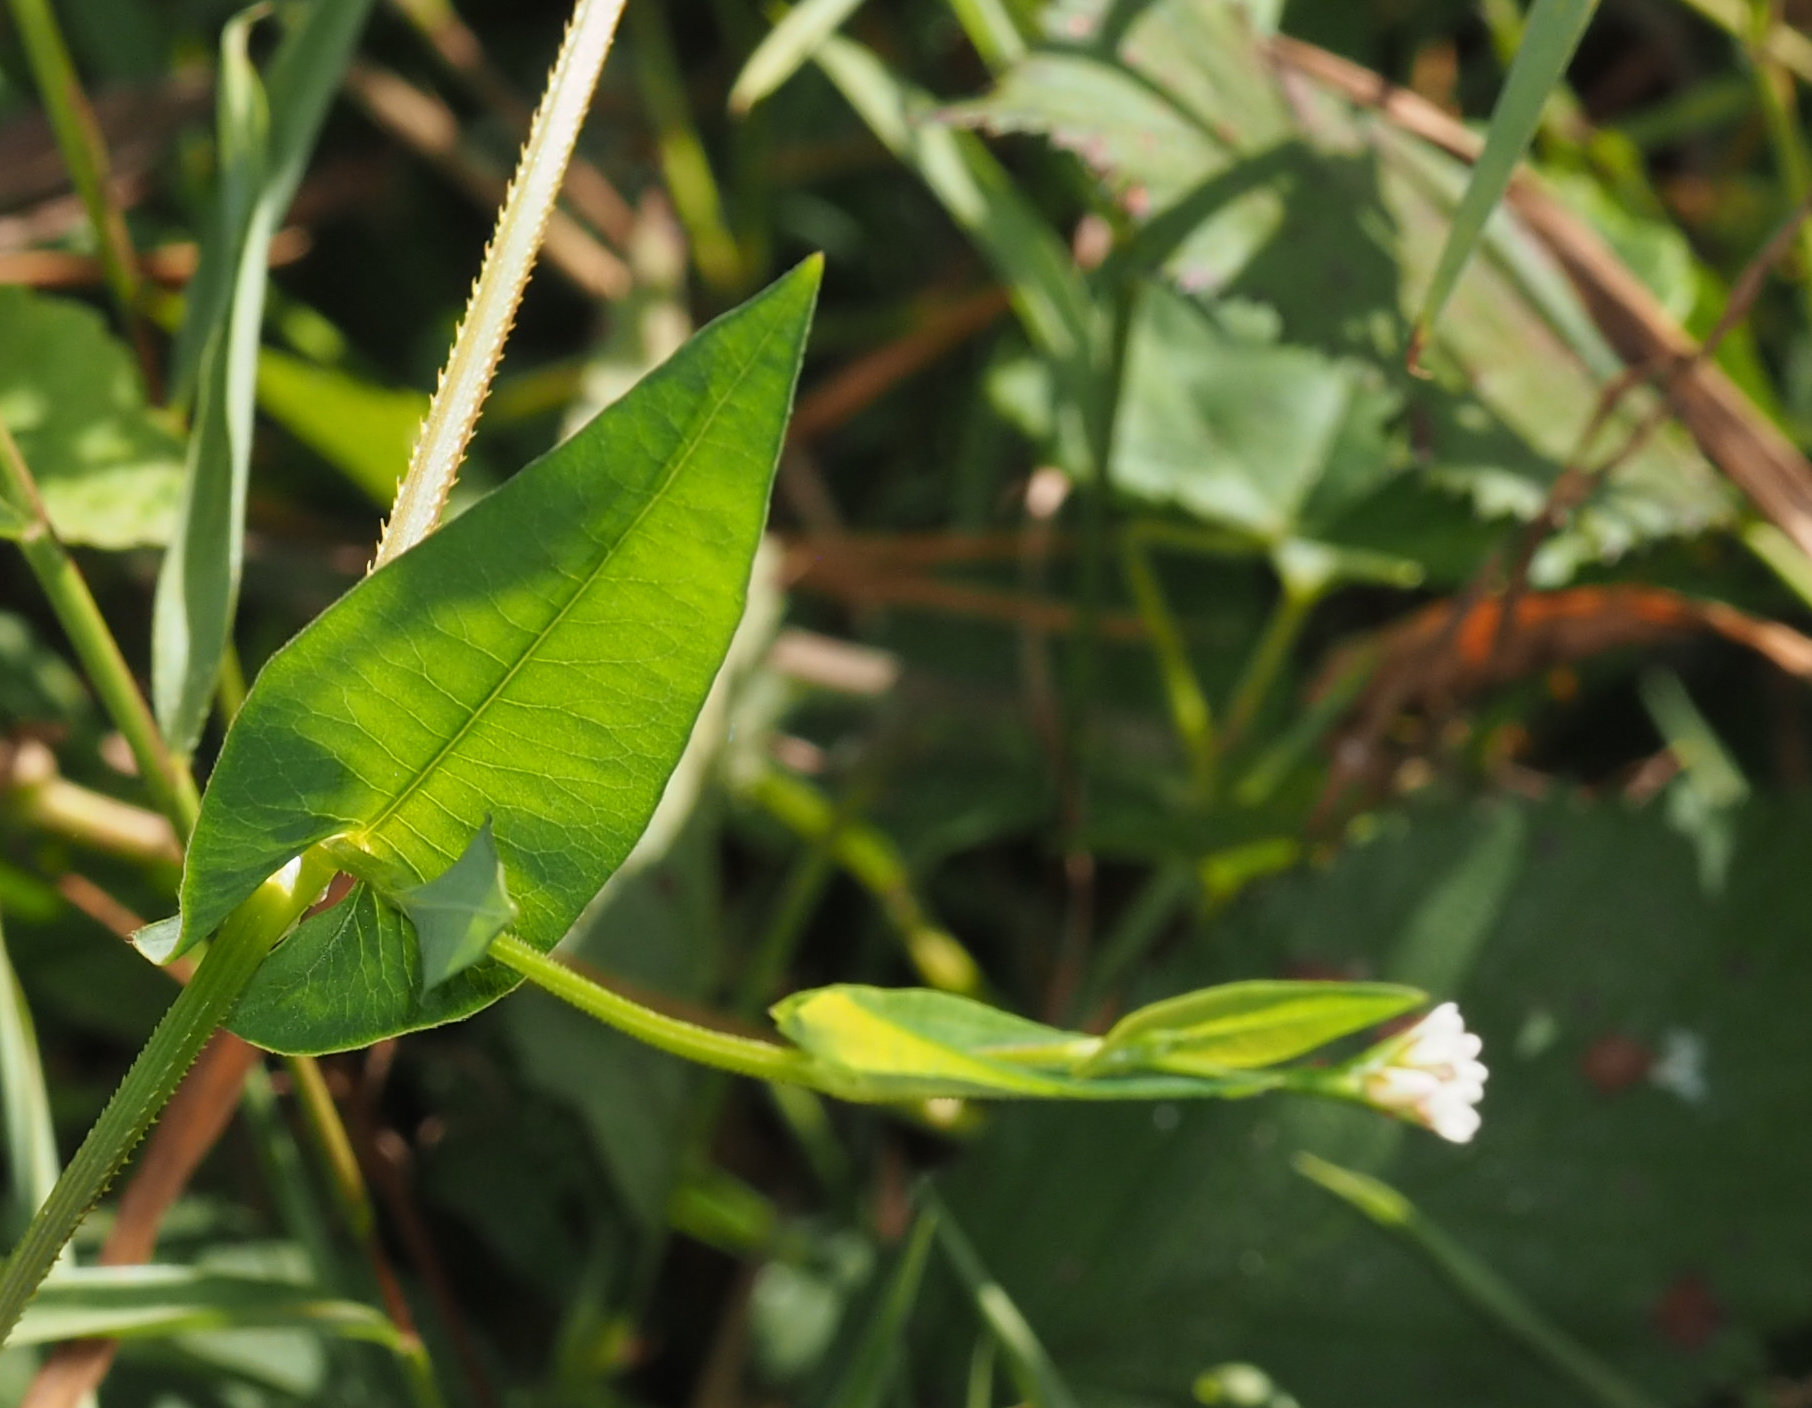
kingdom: Plantae
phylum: Tracheophyta
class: Magnoliopsida
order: Caryophyllales
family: Polygonaceae
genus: Persicaria
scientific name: Persicaria sagittata
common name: American tearthumb
